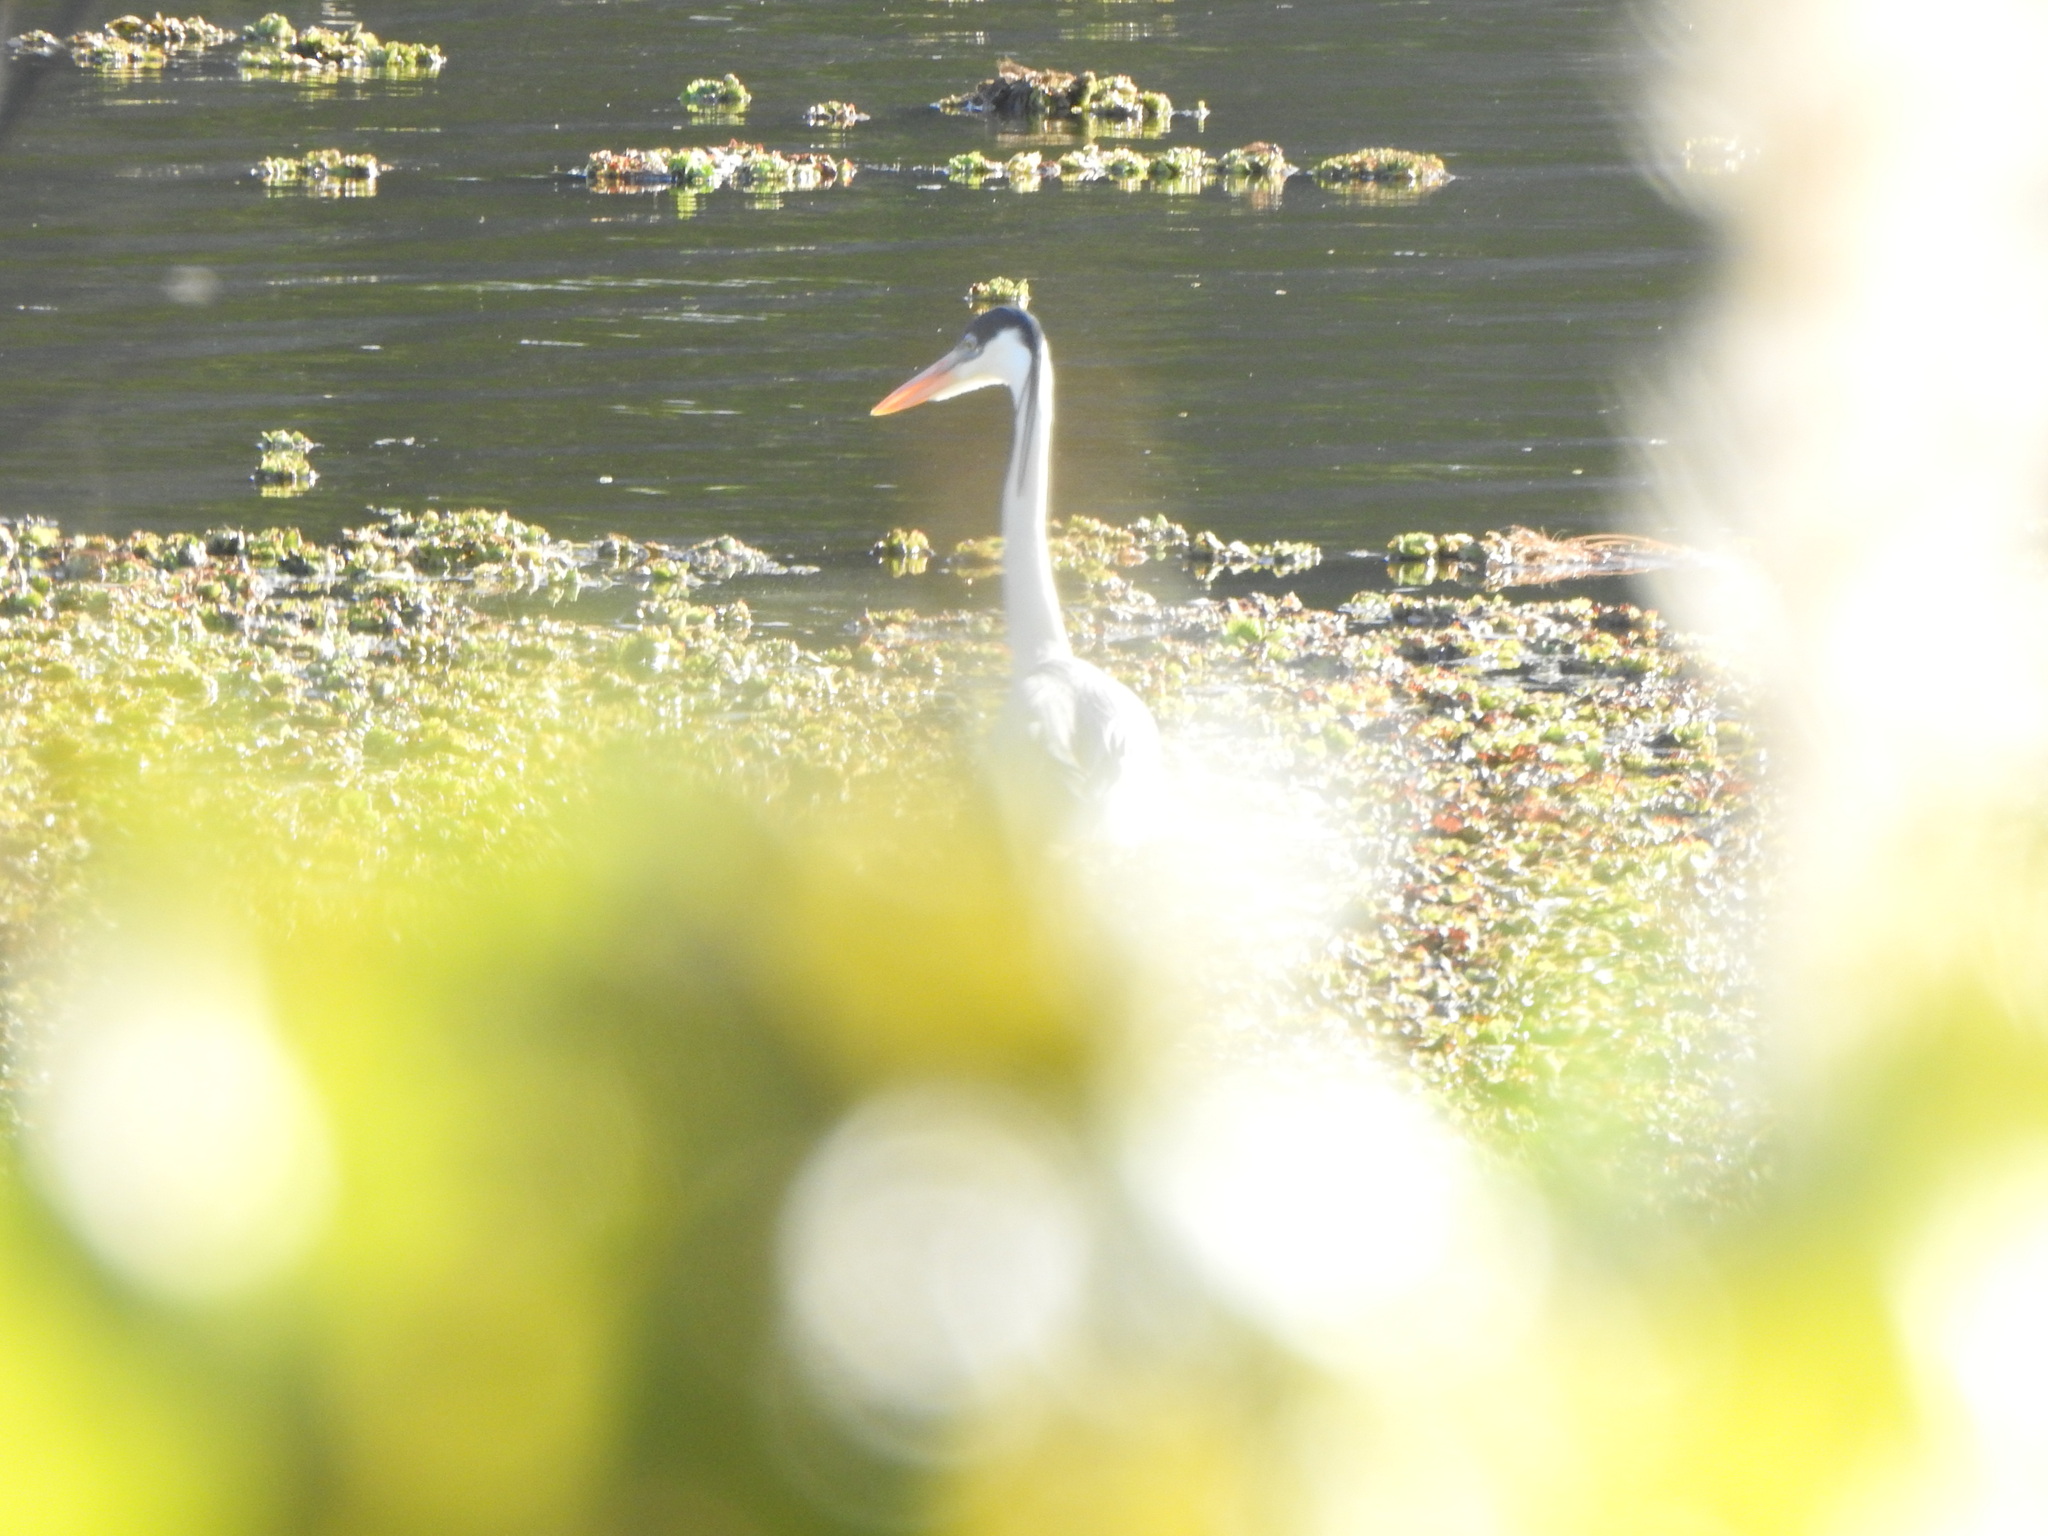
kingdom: Animalia
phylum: Chordata
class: Aves
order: Pelecaniformes
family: Ardeidae
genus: Ardea
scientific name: Ardea cocoi
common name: Cocoi heron
